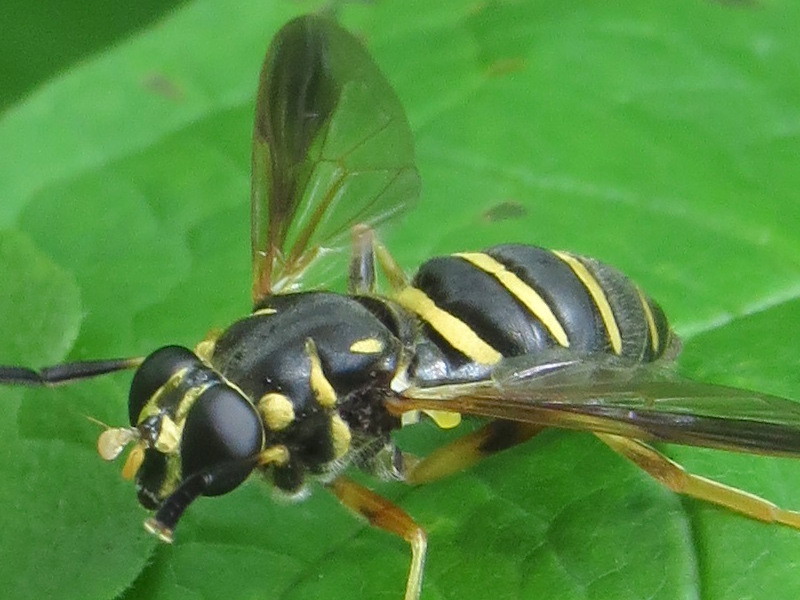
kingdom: Animalia
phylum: Arthropoda
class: Insecta
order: Diptera
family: Syrphidae
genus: Temnostoma
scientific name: Temnostoma balyras
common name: Yellow-haired falsehorn
